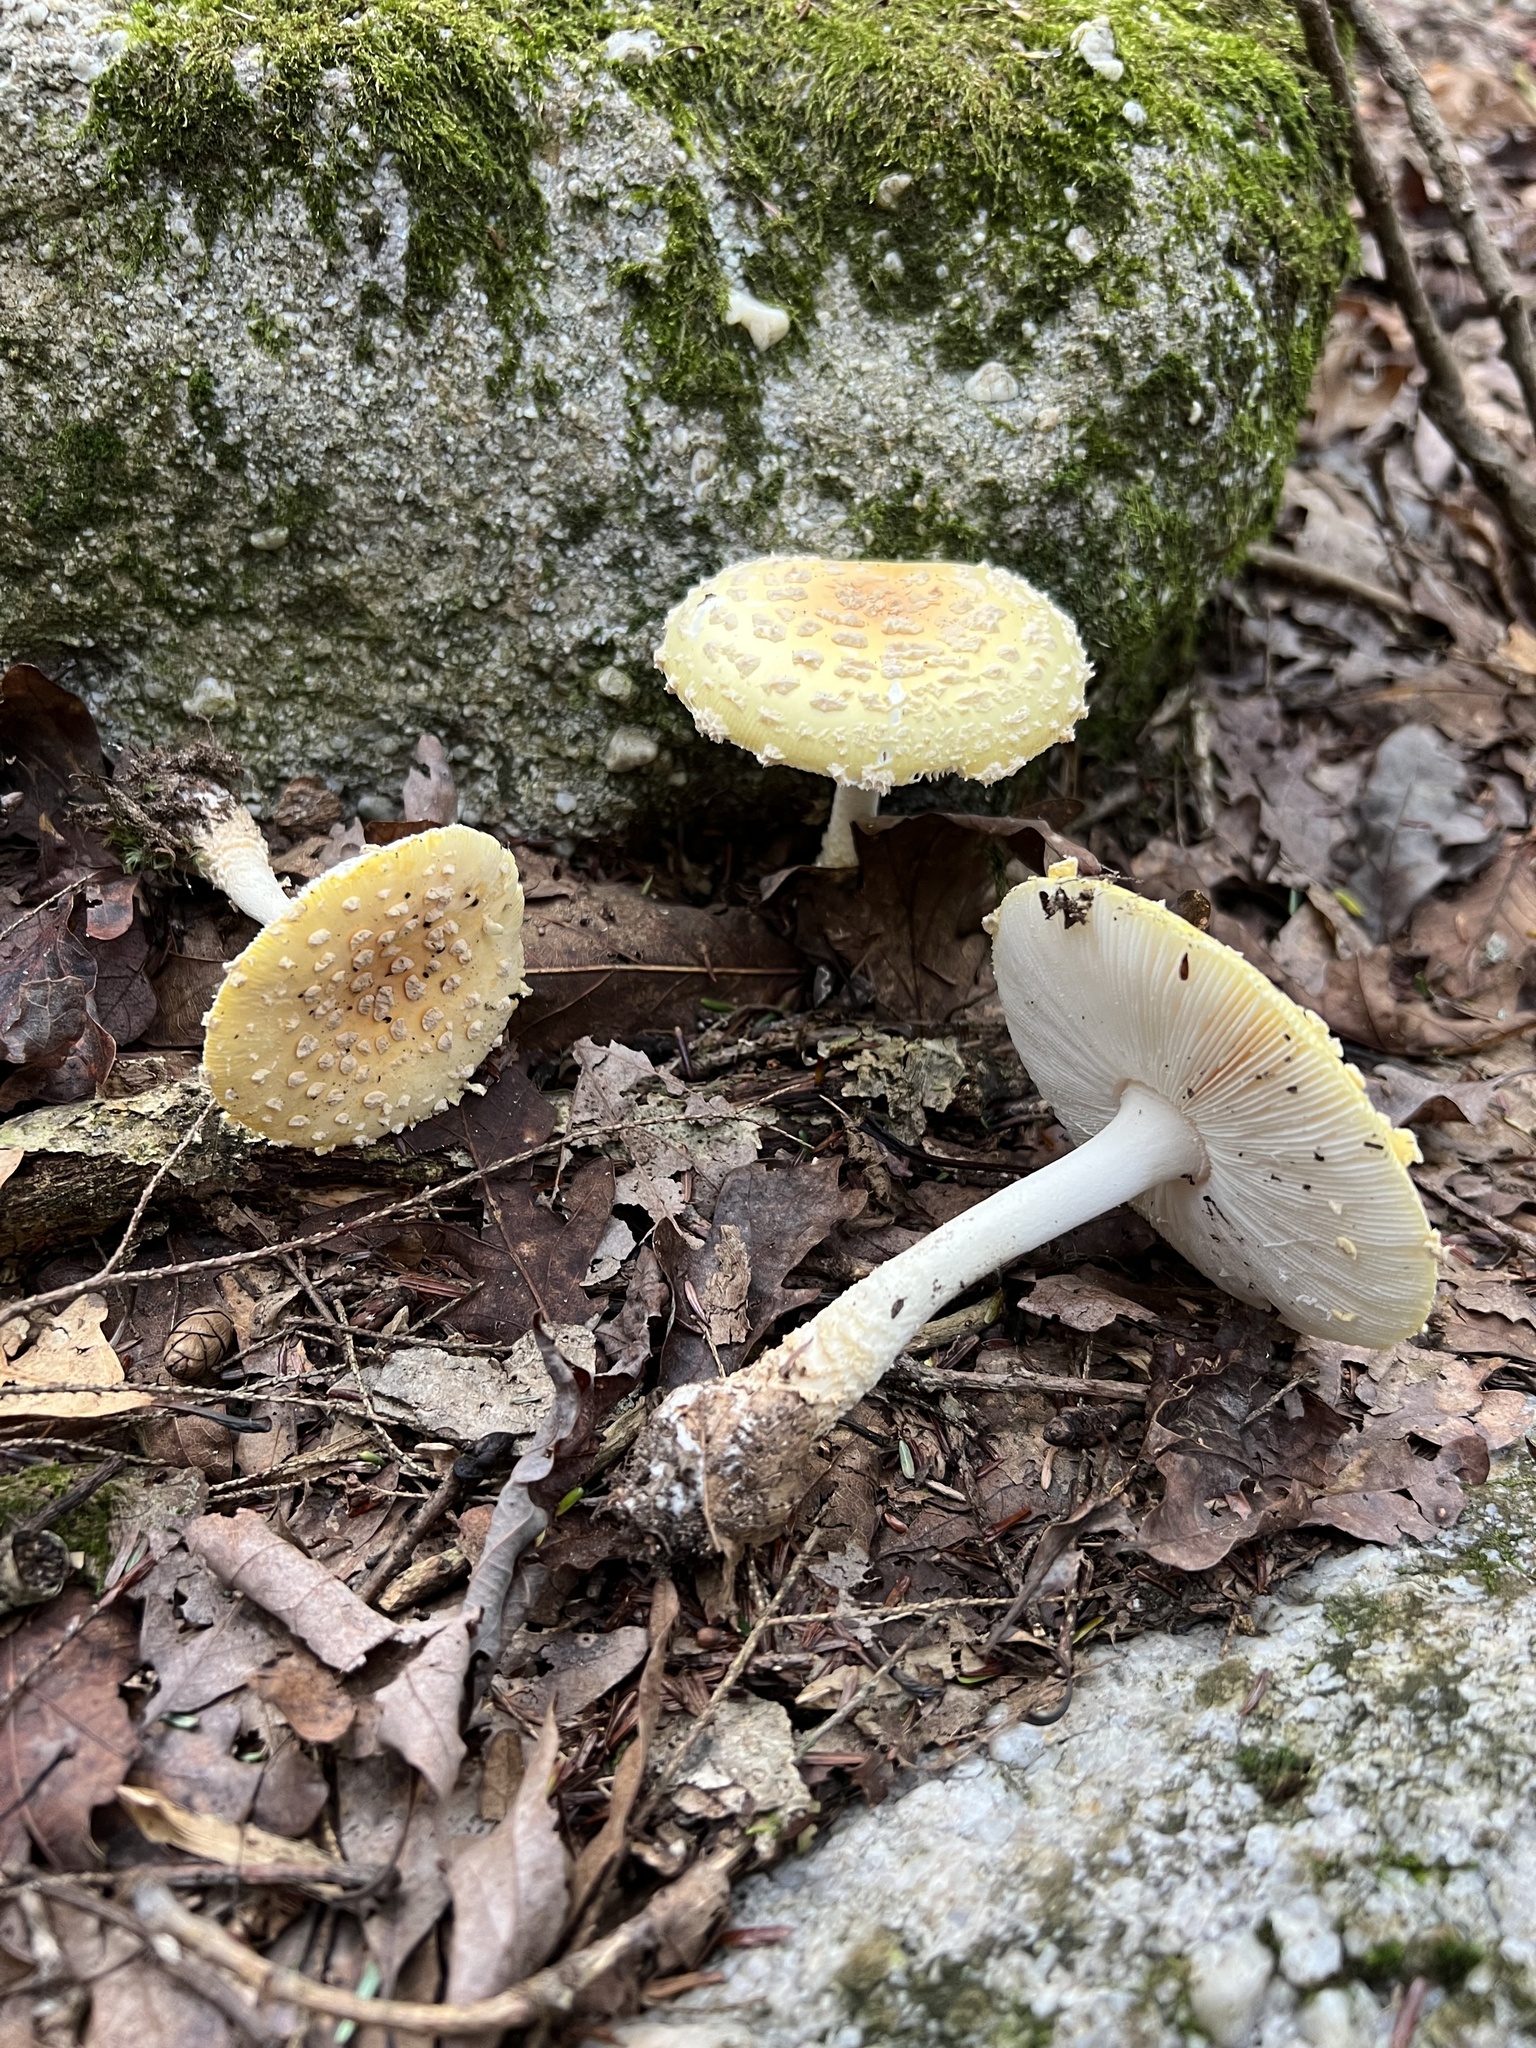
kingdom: Fungi
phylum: Basidiomycota
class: Agaricomycetes
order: Agaricales
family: Amanitaceae
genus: Amanita
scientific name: Amanita muscaria
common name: Fly agaric
